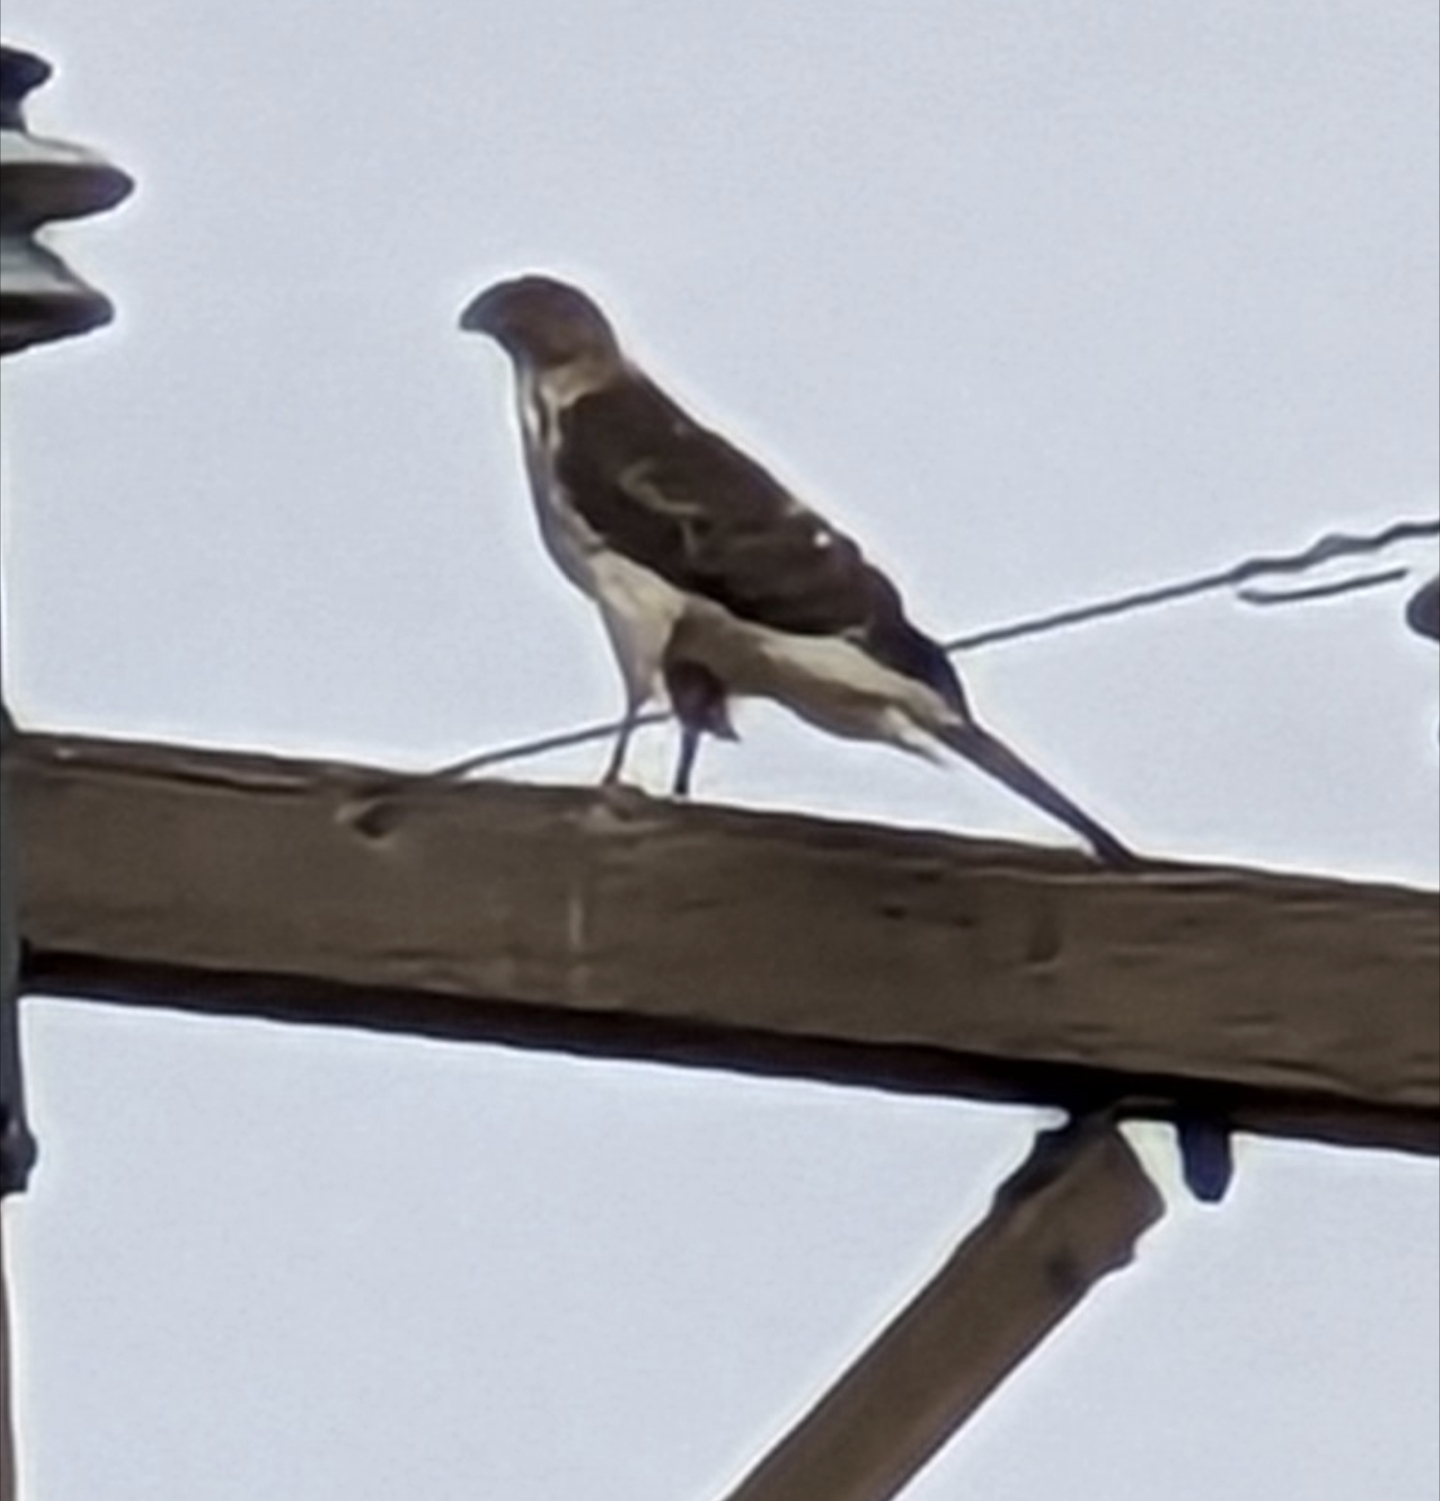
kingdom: Animalia
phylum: Chordata
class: Aves
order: Accipitriformes
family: Accipitridae
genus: Accipiter
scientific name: Accipiter cooperii
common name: Cooper's hawk
